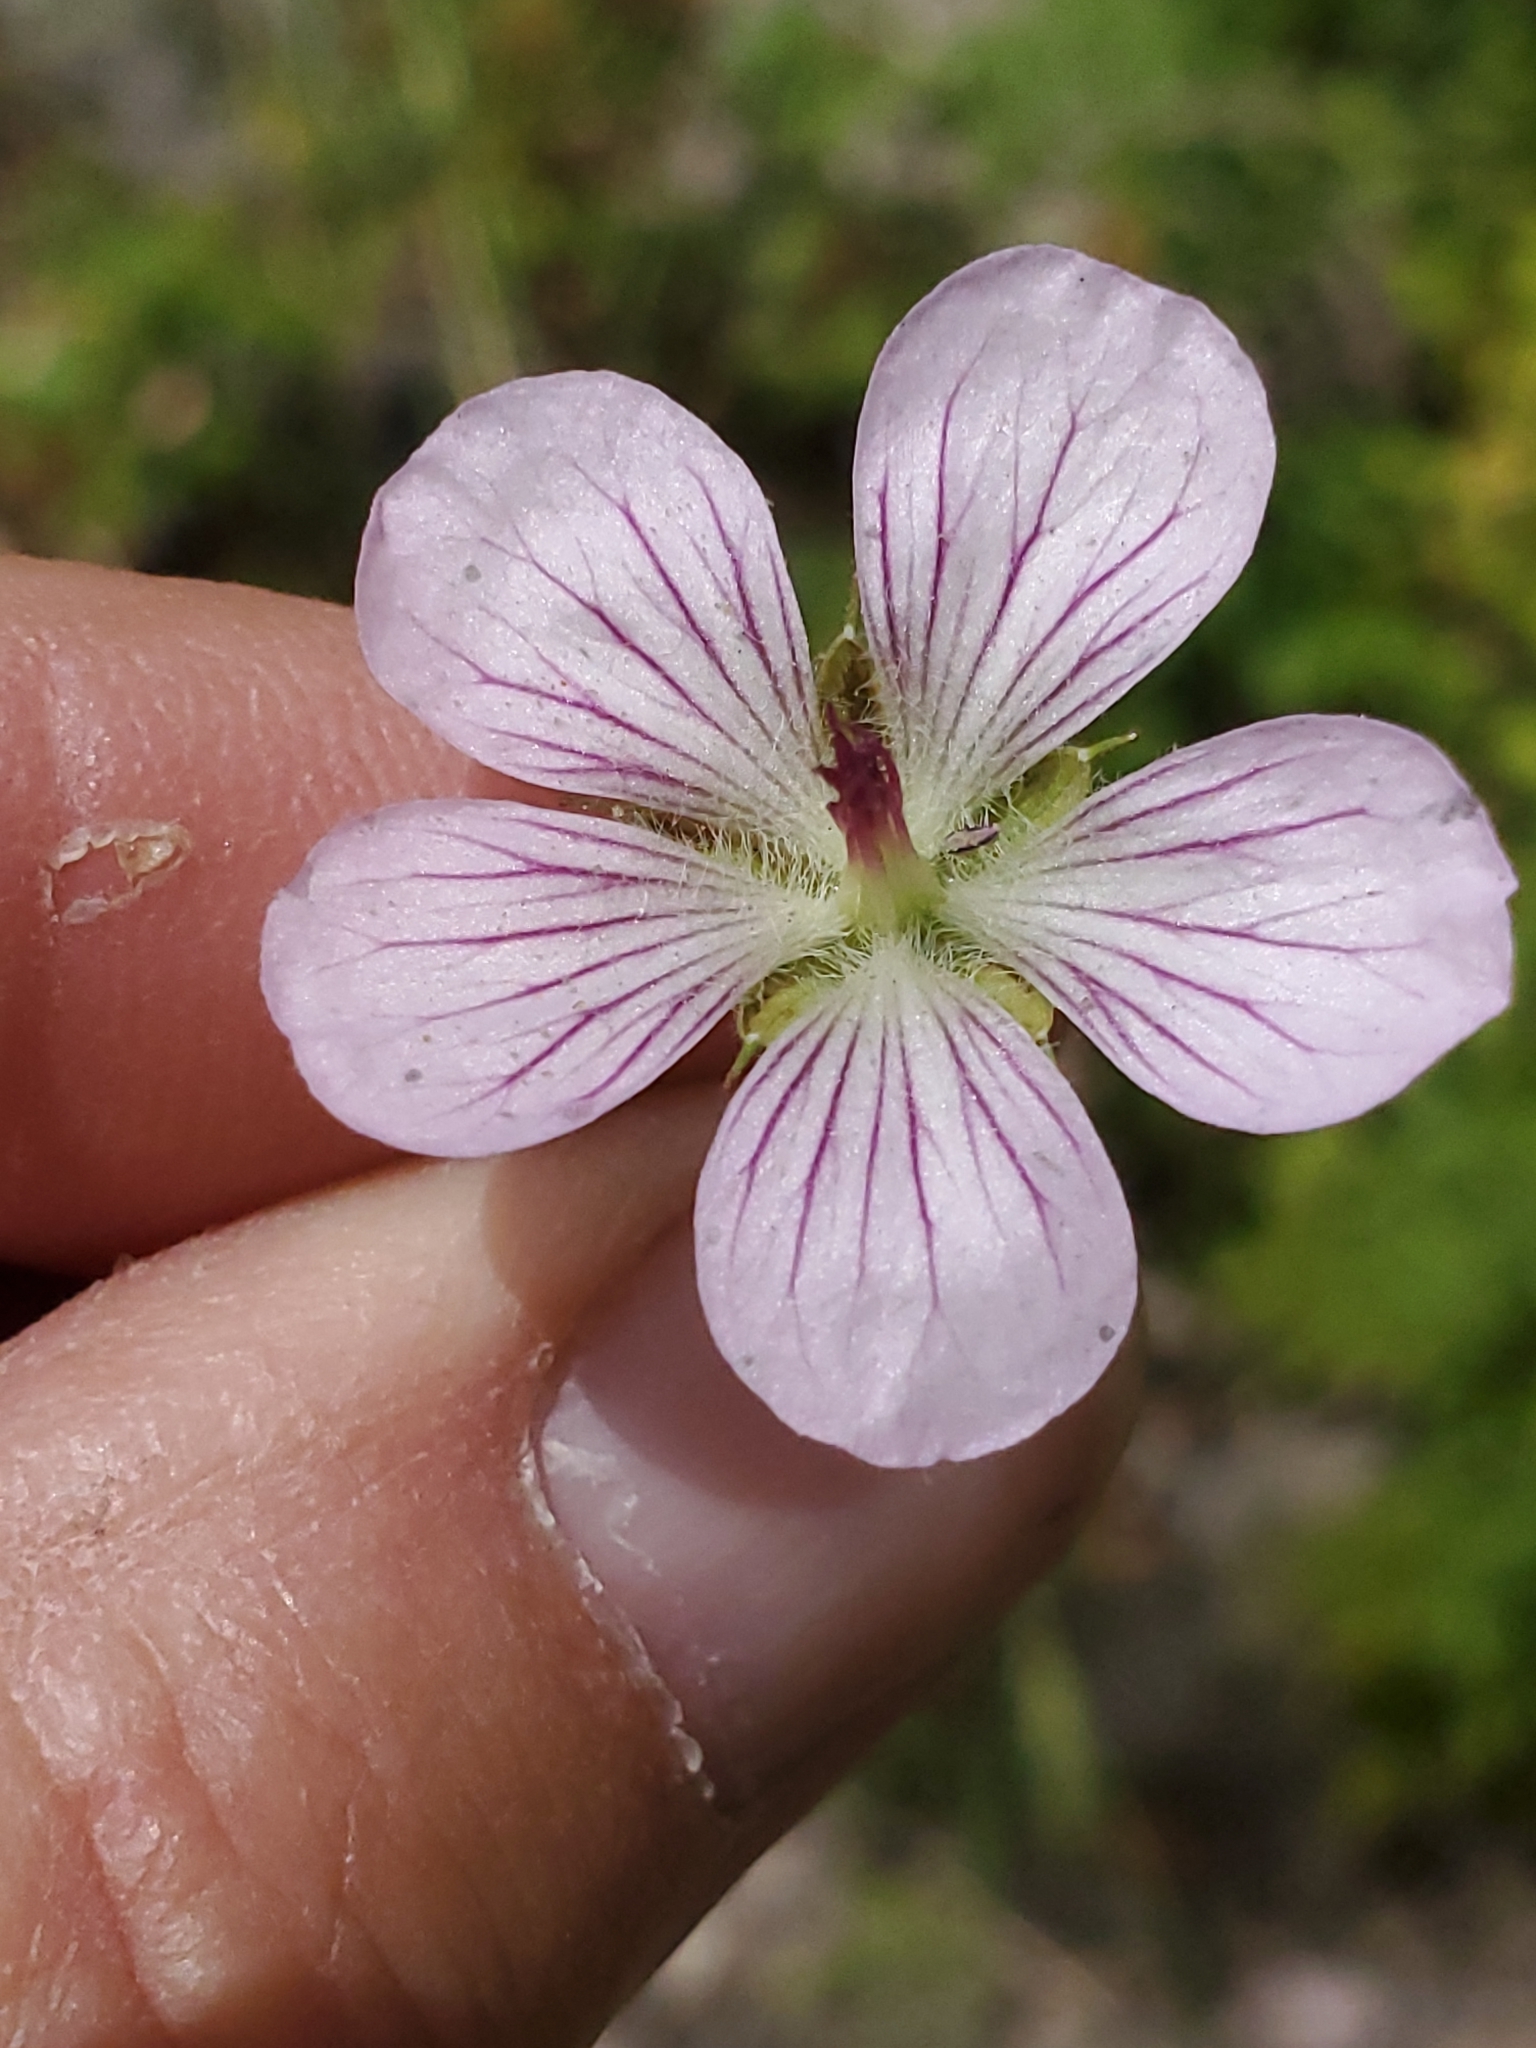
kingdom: Plantae
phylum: Tracheophyta
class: Magnoliopsida
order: Geraniales
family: Geraniaceae
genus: Geranium
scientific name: Geranium richardsonii
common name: Richardson's crane's-bill
